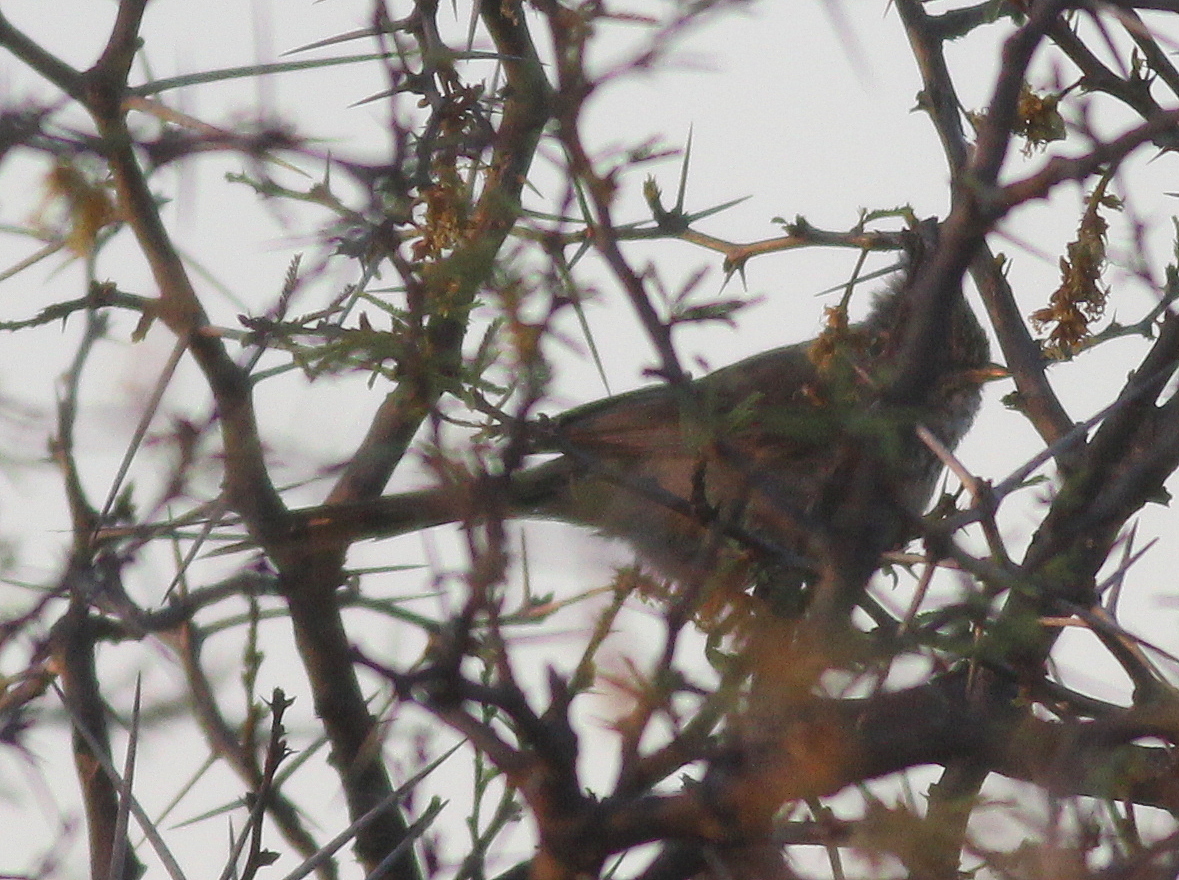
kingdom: Animalia
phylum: Chordata
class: Aves
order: Passeriformes
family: Furnariidae
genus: Leptasthenura
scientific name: Leptasthenura platensis
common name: Tufted tit-spinetail
